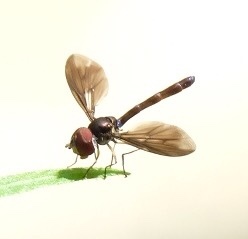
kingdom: Animalia
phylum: Arthropoda
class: Insecta
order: Diptera
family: Syrphidae
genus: Ocyptamus
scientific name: Ocyptamus fuscipennis
